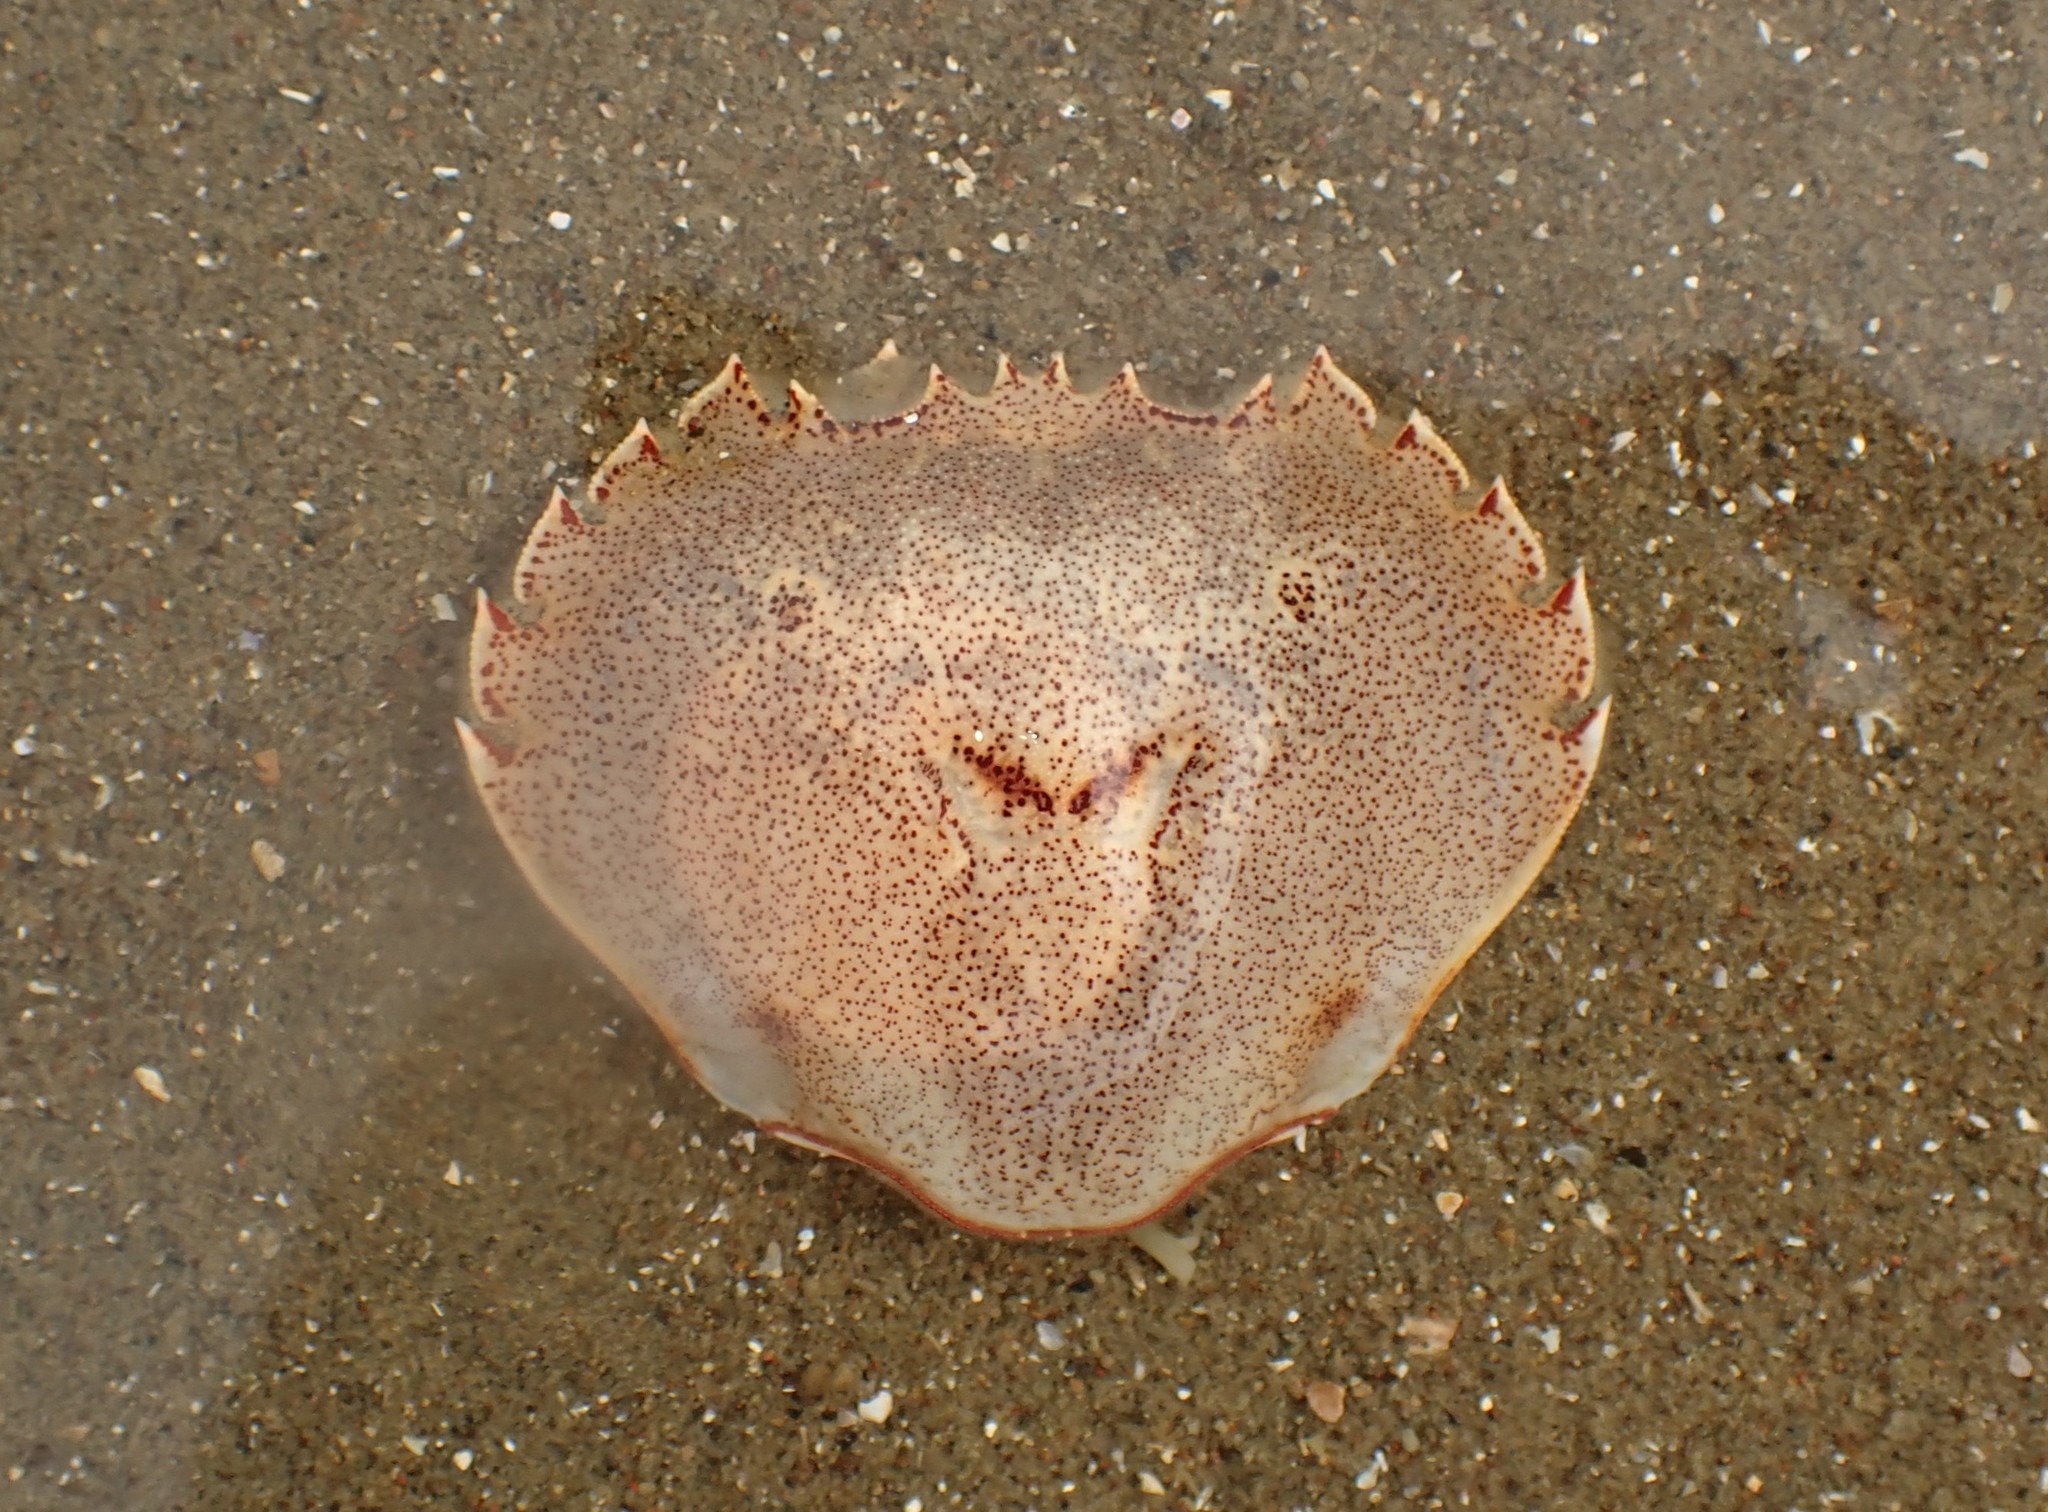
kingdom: Animalia
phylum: Arthropoda
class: Malacostraca
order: Decapoda
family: Ovalipidae
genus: Ovalipes
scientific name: Ovalipes catharus
